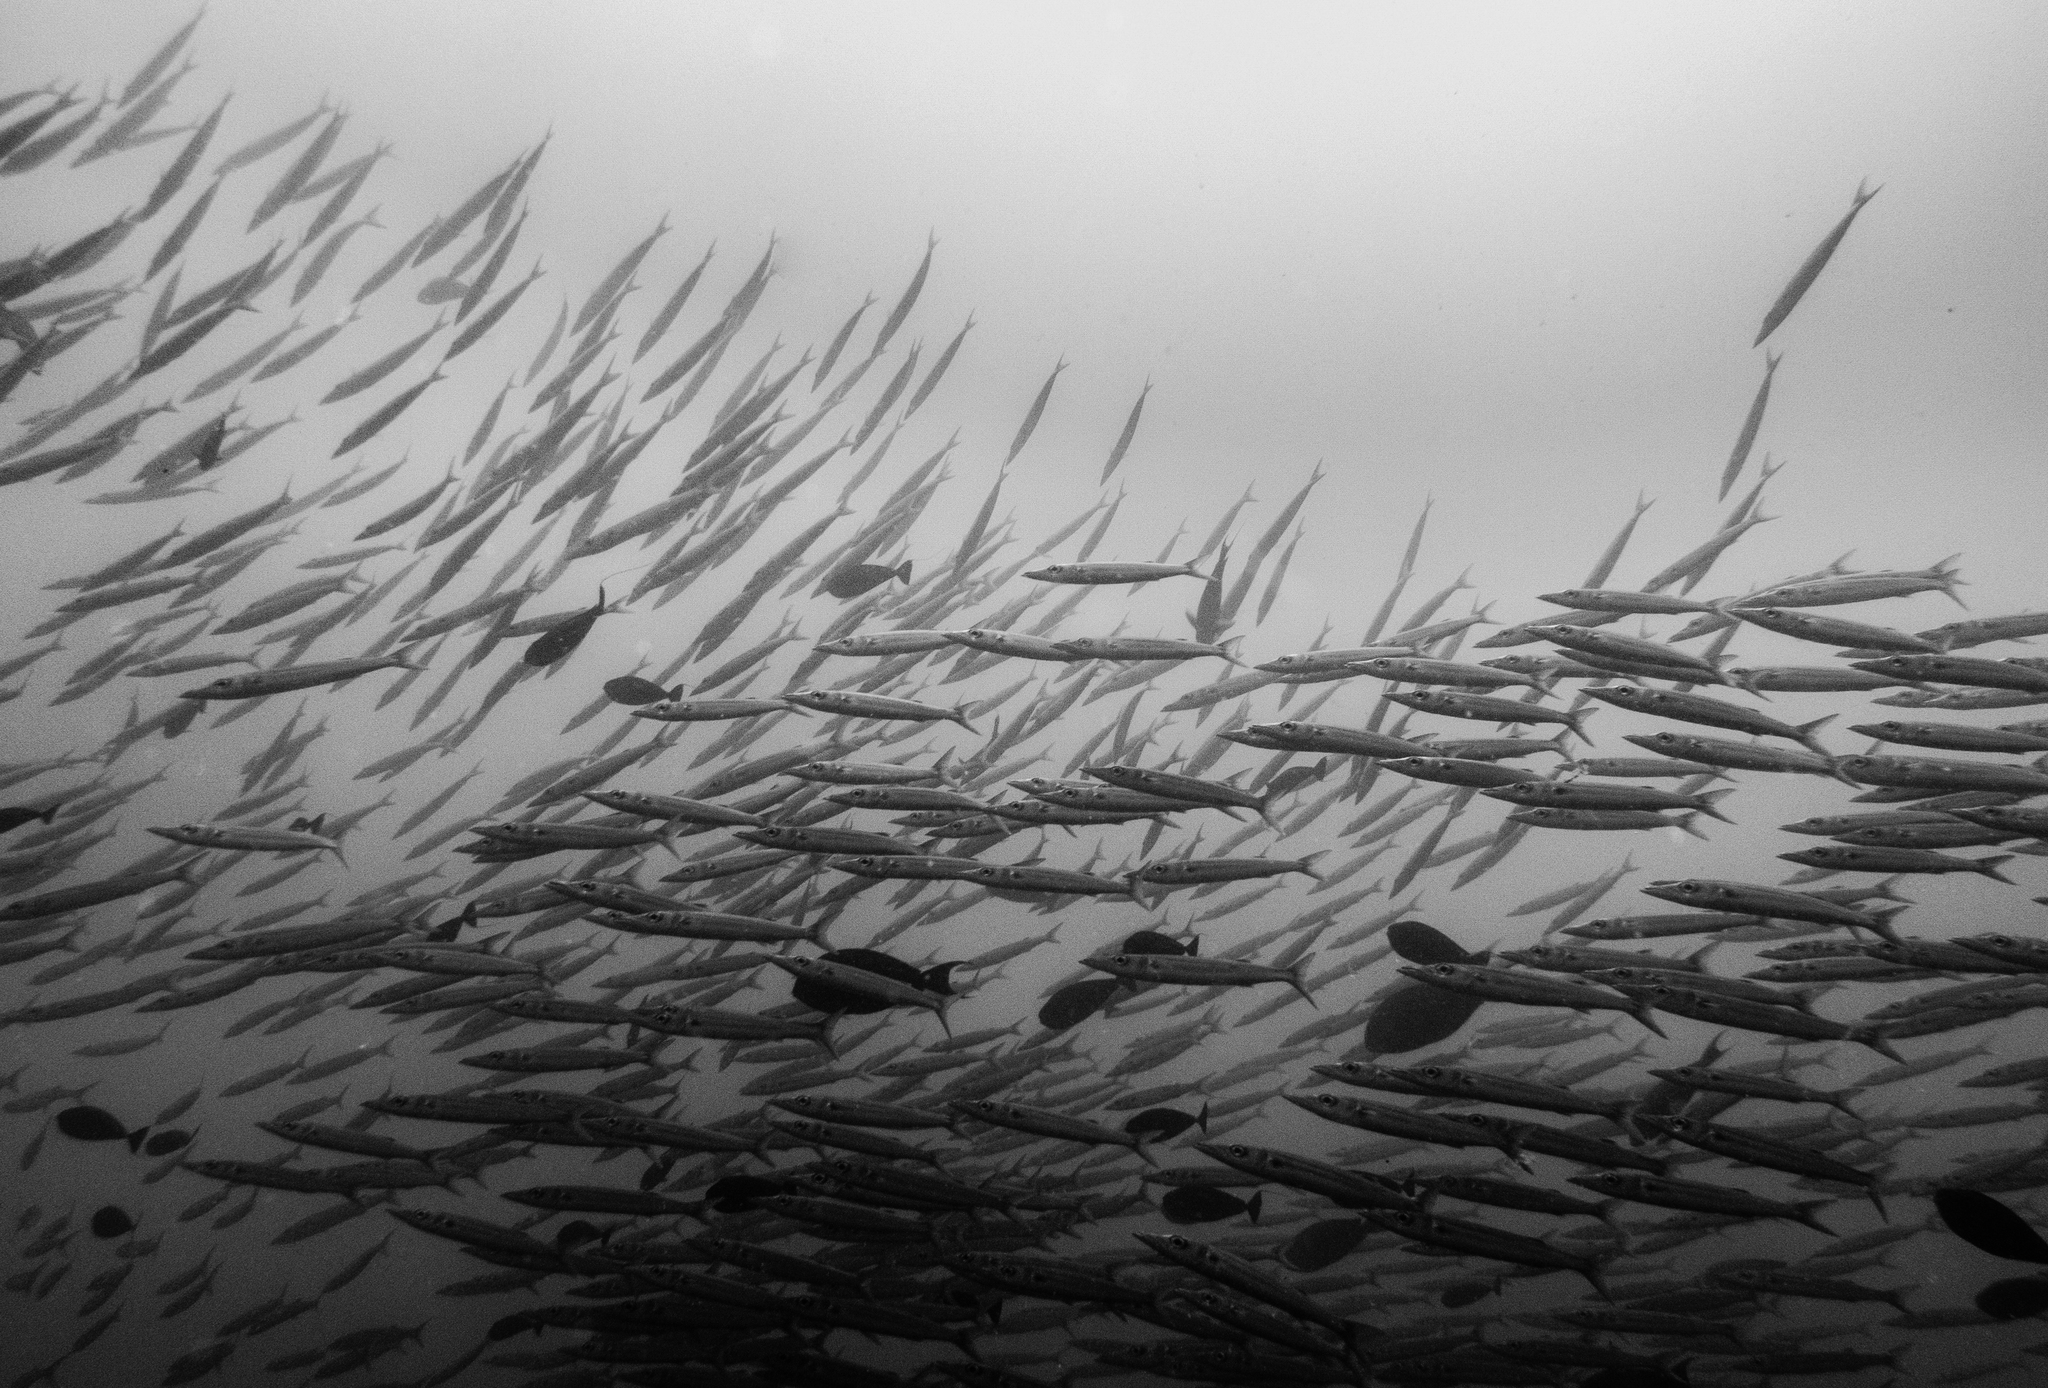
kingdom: Animalia
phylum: Chordata
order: Perciformes
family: Sphyraenidae
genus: Sphyraena
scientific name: Sphyraena forsteri
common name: Bigeye barracuda
